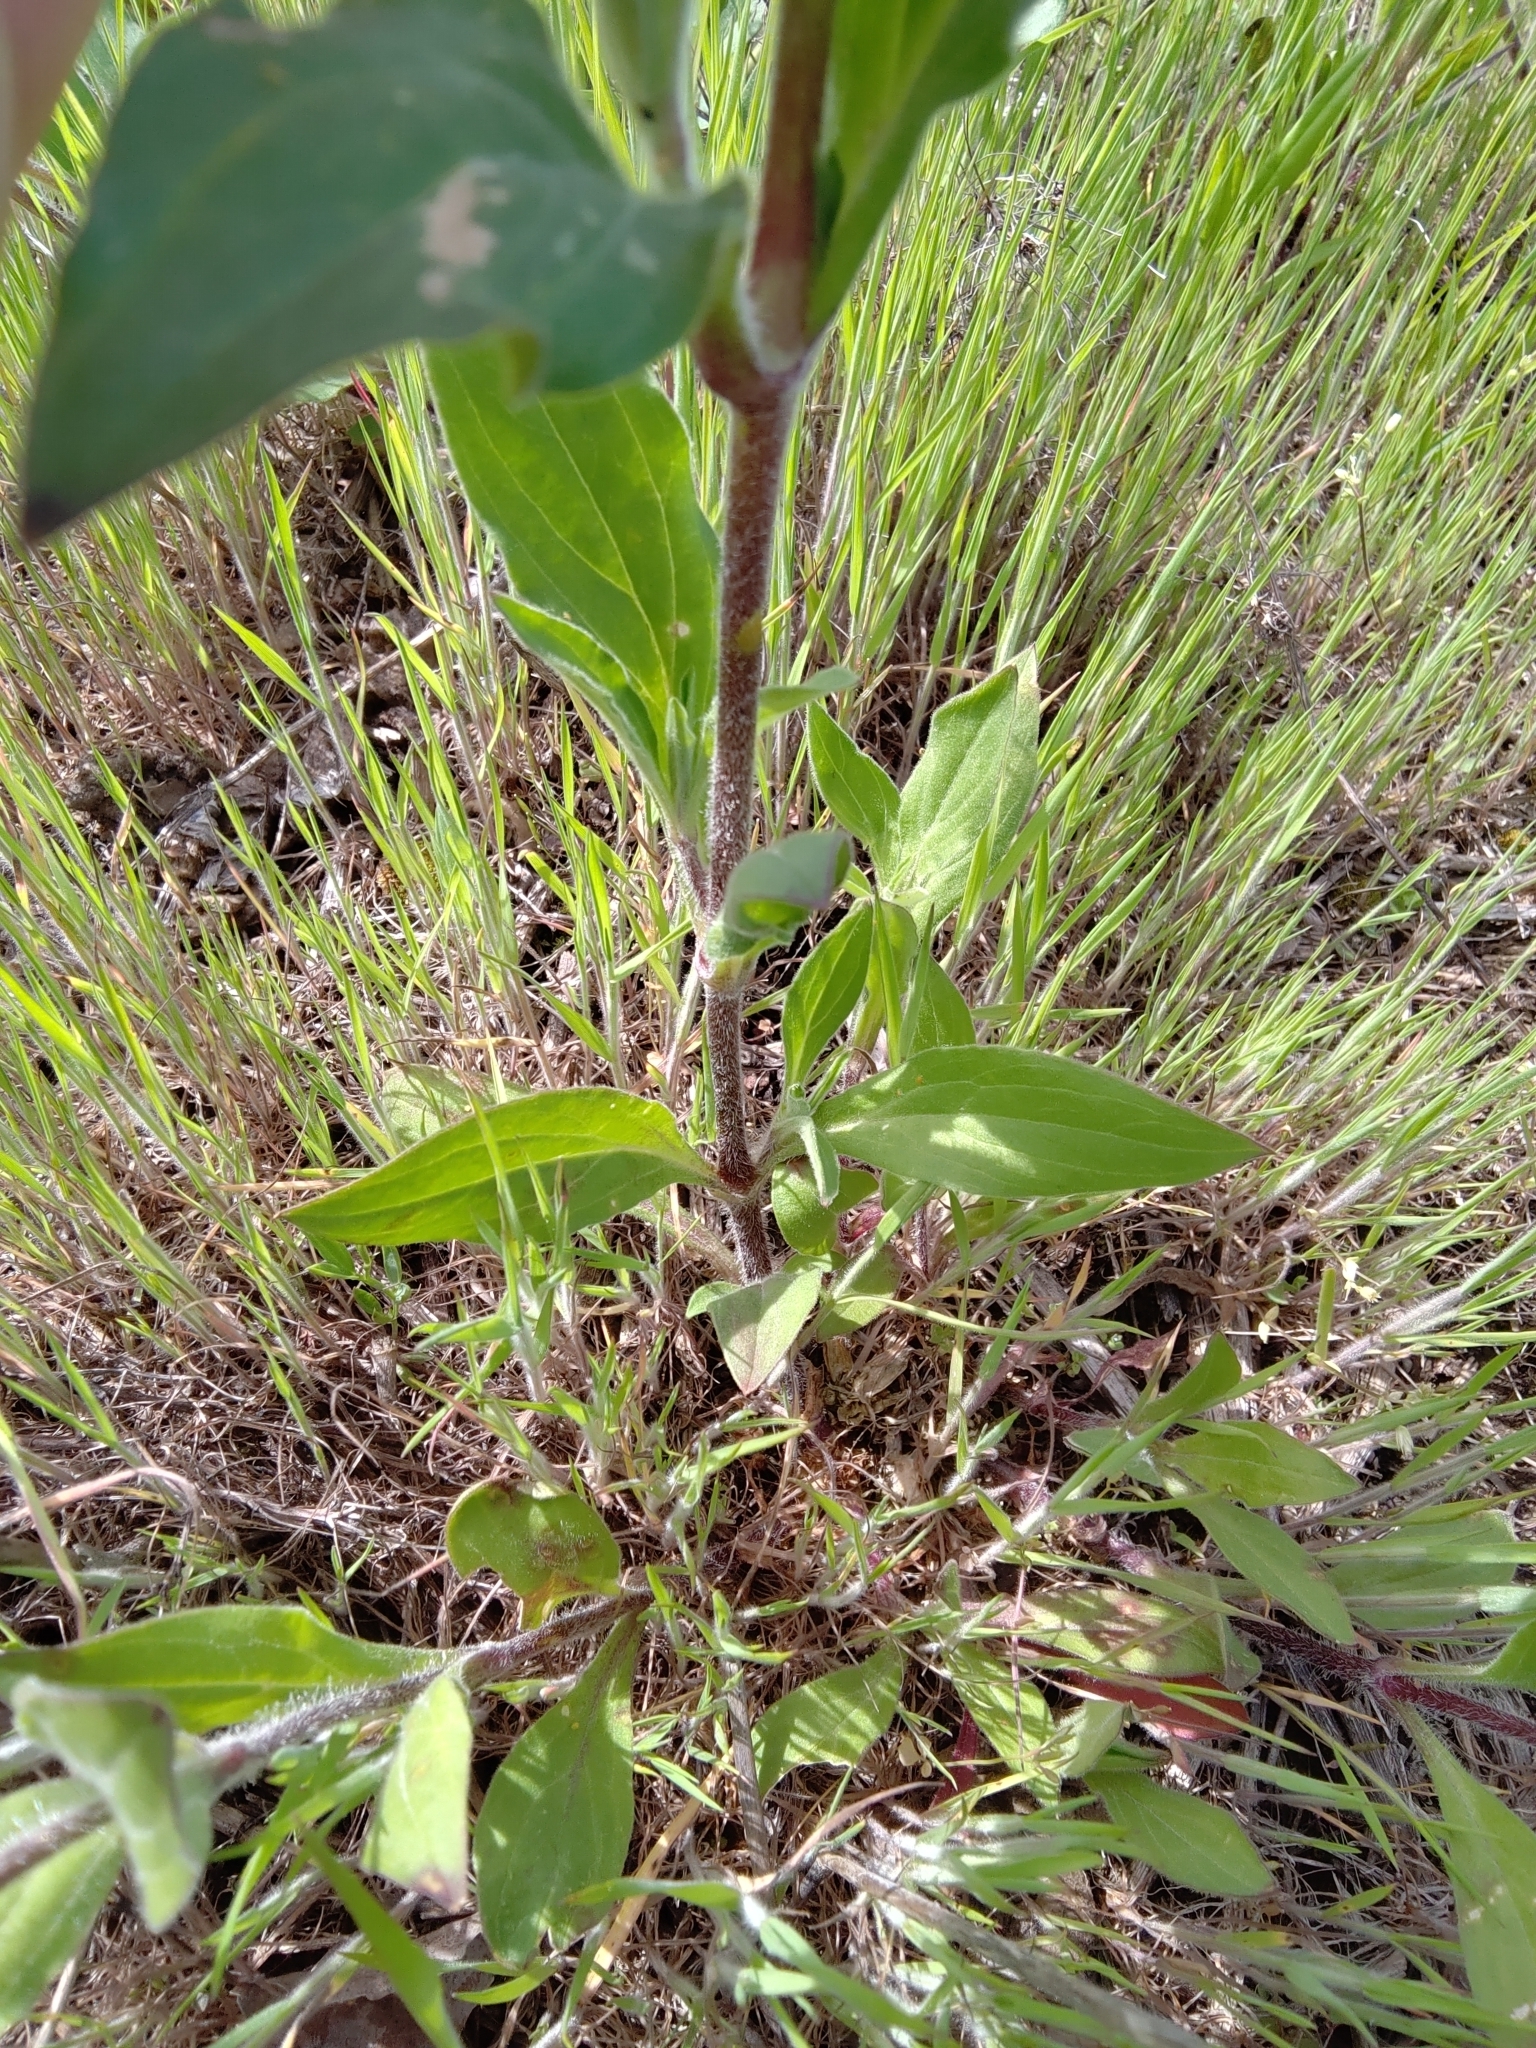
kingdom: Plantae
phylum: Tracheophyta
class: Magnoliopsida
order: Caryophyllales
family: Caryophyllaceae
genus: Silene
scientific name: Silene latifolia
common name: White campion
